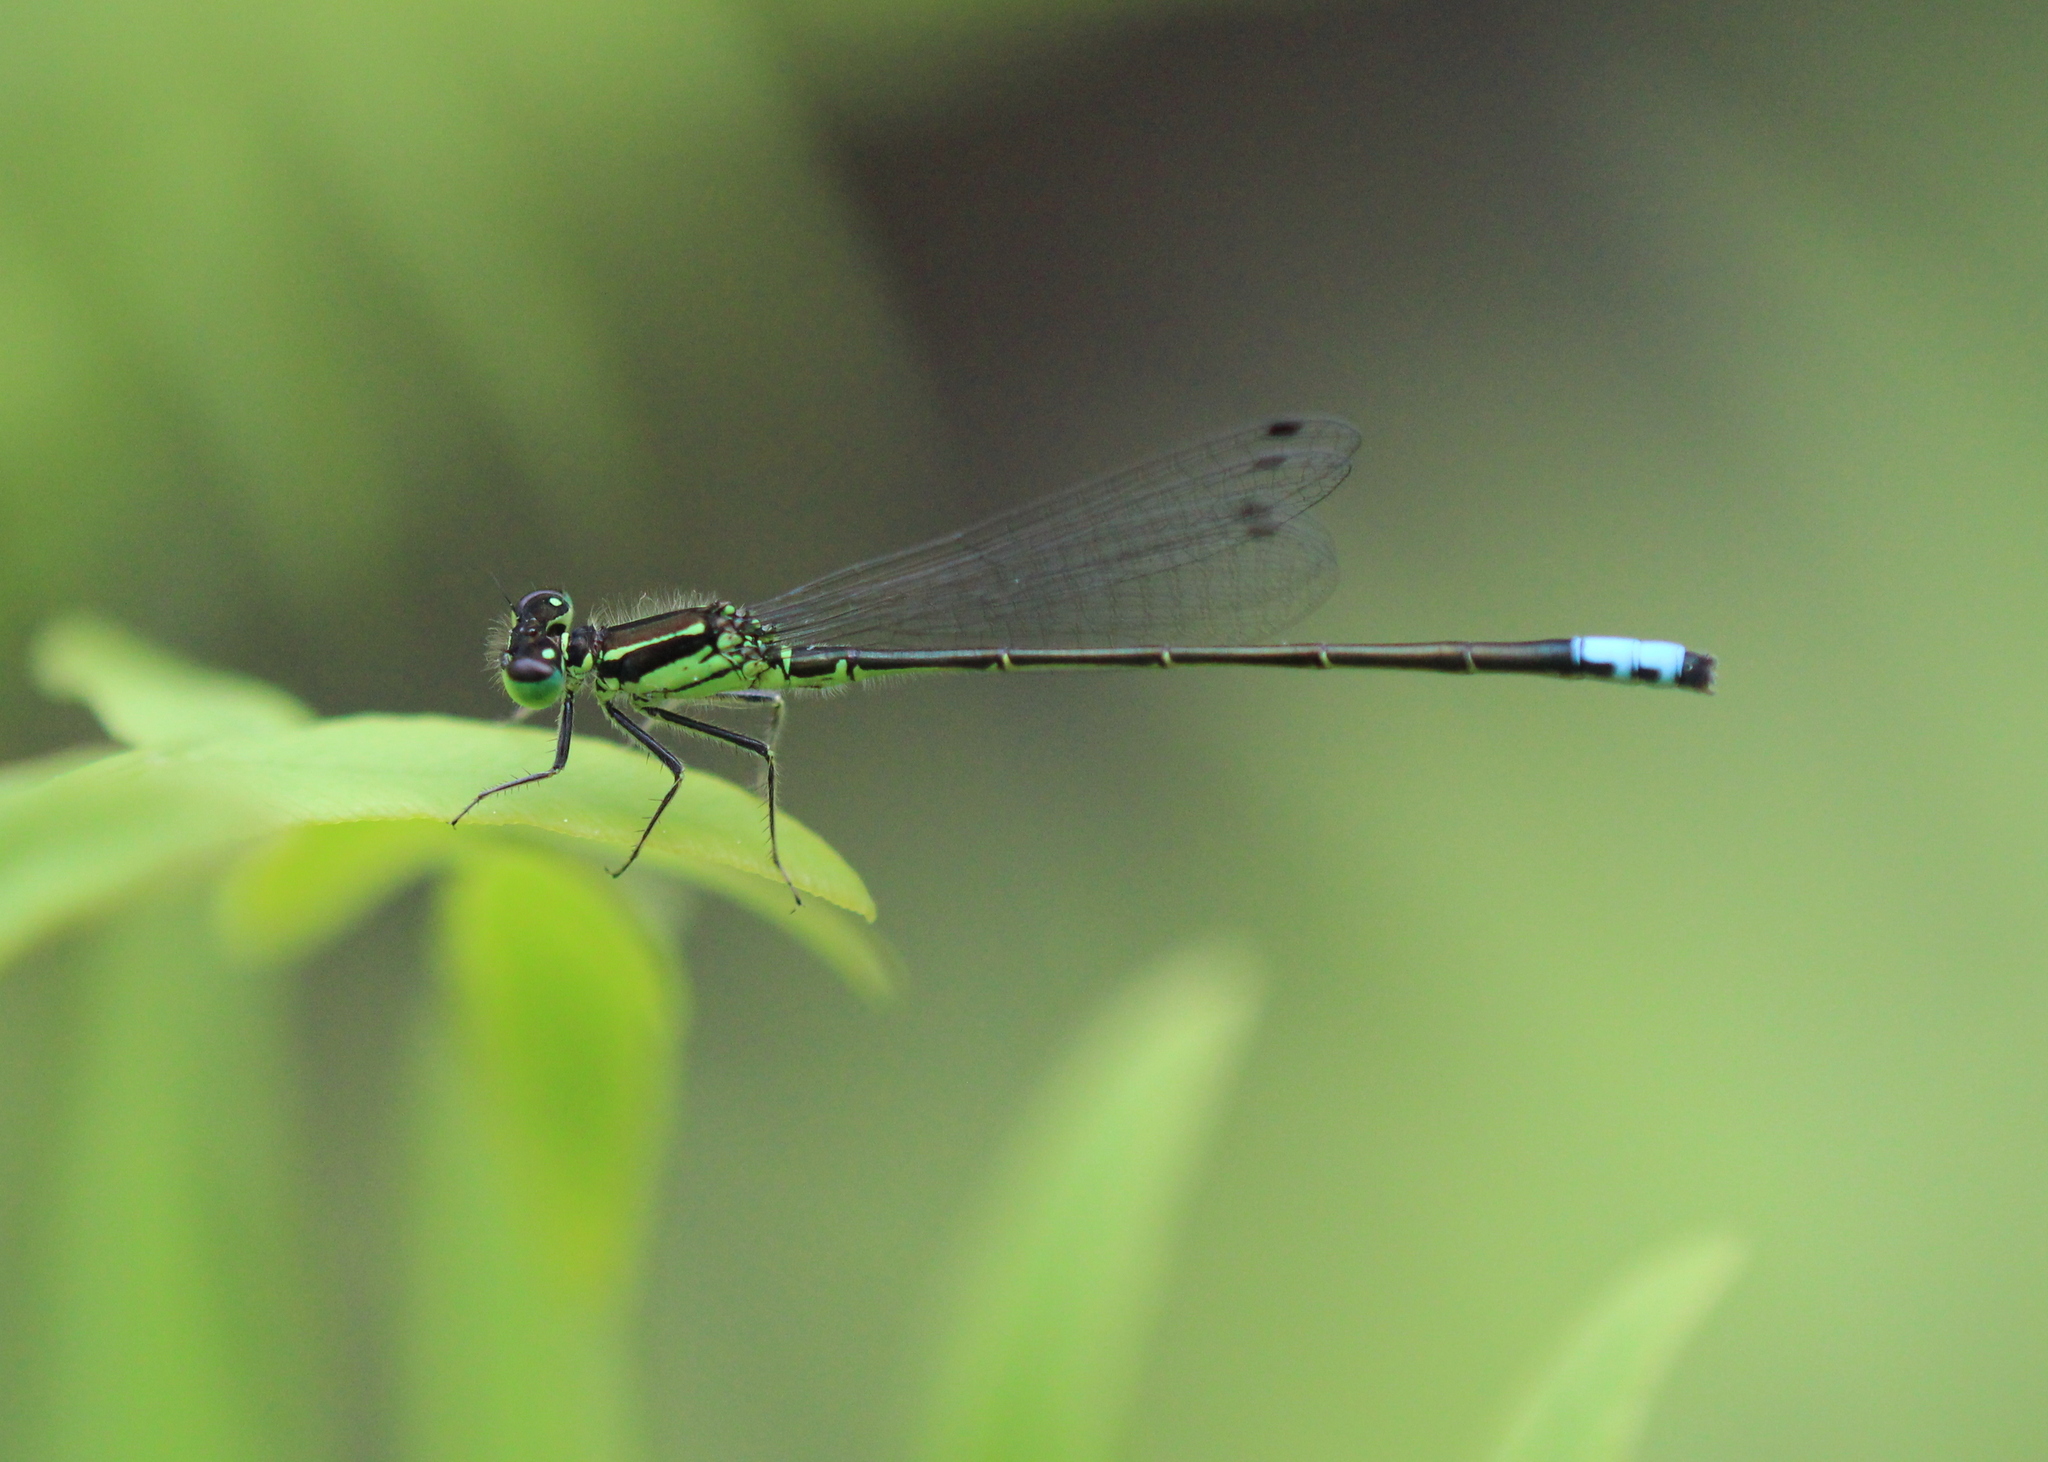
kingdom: Animalia
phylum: Arthropoda
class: Insecta
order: Odonata
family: Coenagrionidae
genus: Ischnura
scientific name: Ischnura verticalis
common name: Eastern forktail
